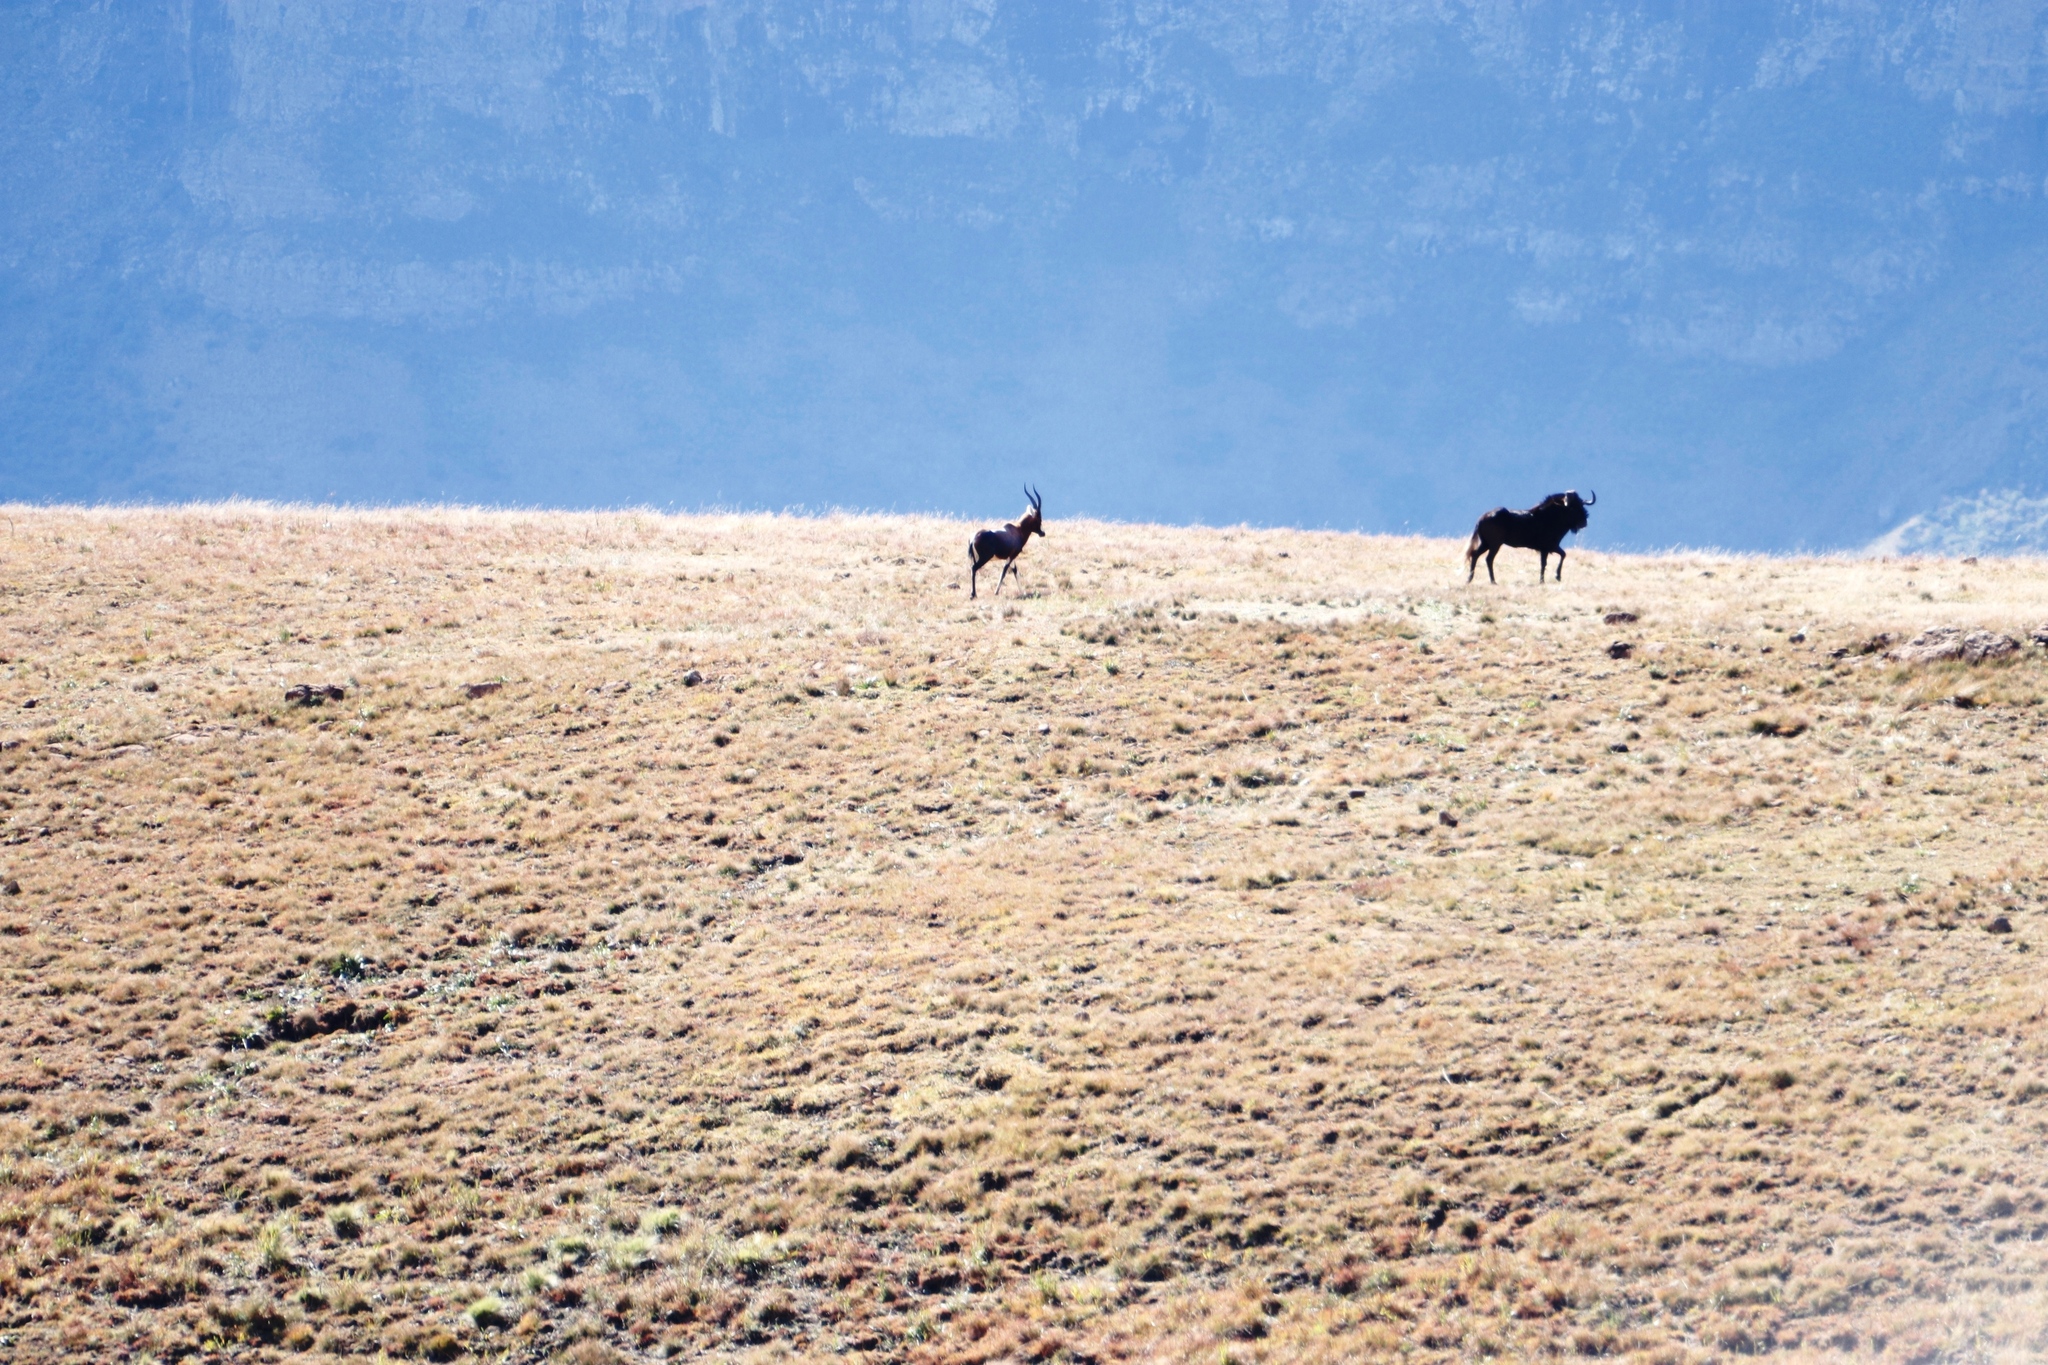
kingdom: Animalia
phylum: Chordata
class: Mammalia
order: Artiodactyla
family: Bovidae
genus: Damaliscus
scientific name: Damaliscus pygargus
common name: Bontebok
